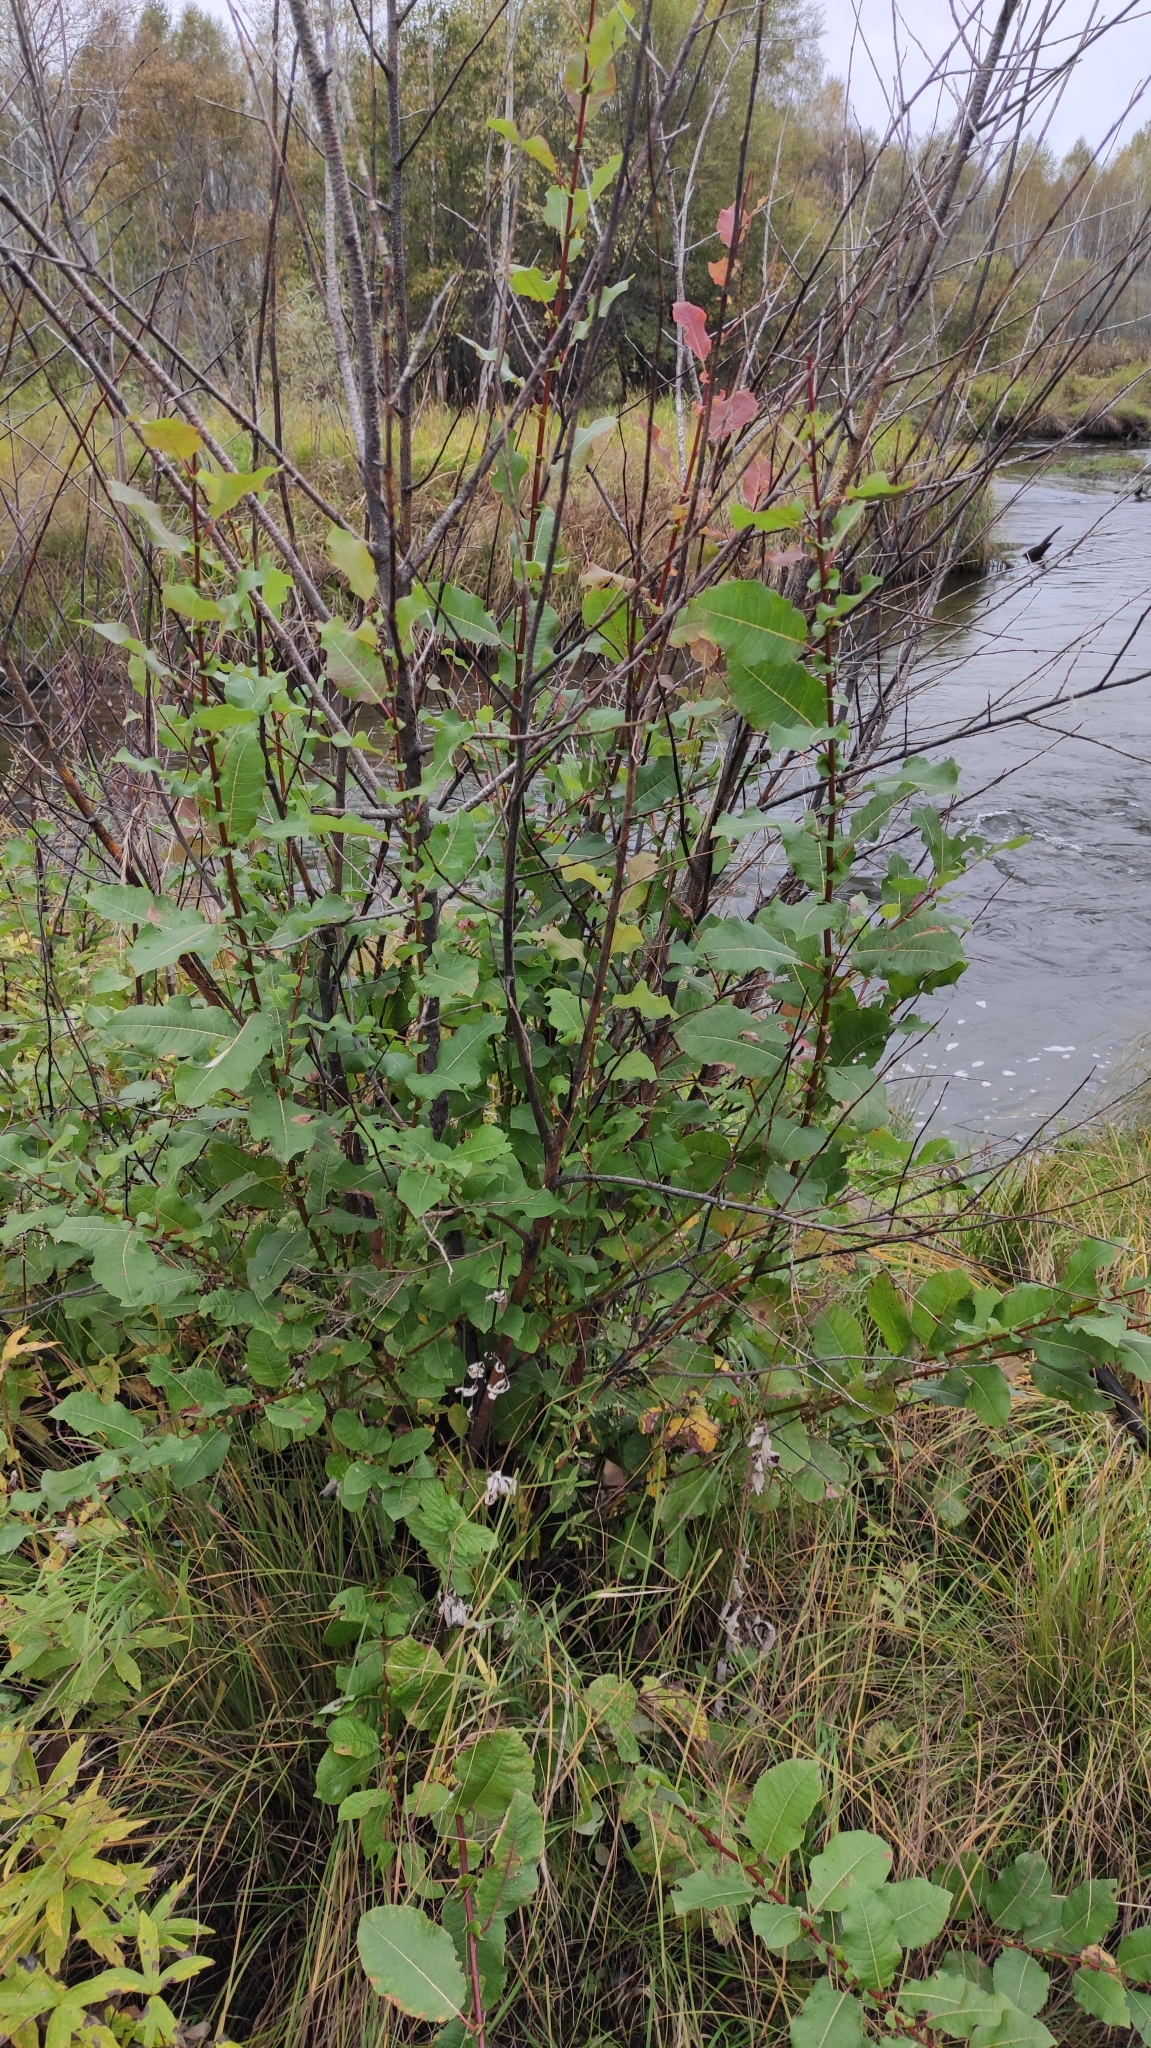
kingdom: Plantae
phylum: Tracheophyta
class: Magnoliopsida
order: Malpighiales
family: Salicaceae
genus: Salix
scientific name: Salix pyrolifolia
